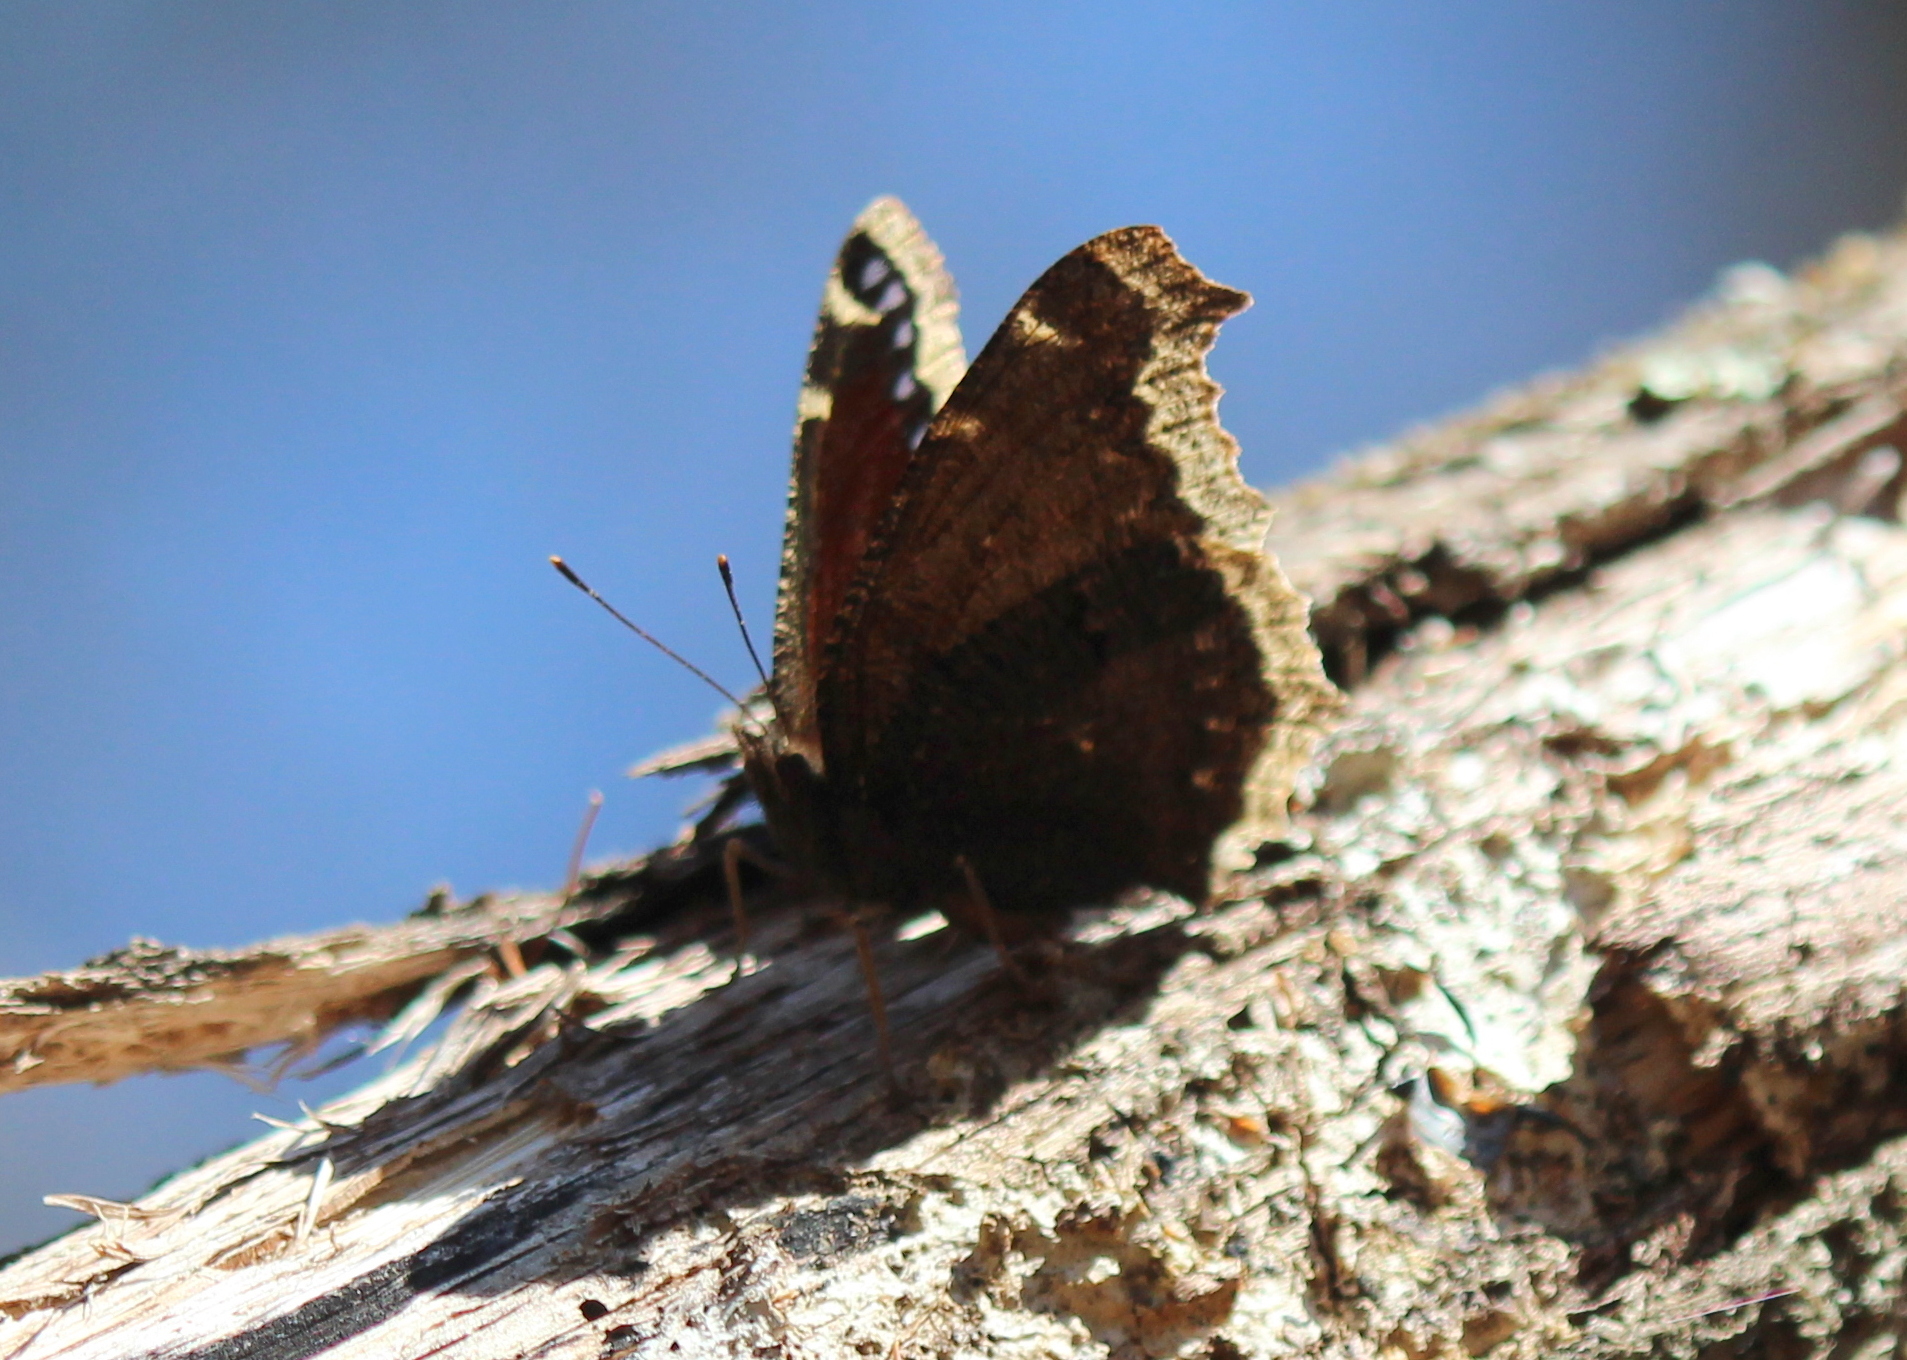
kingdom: Animalia
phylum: Arthropoda
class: Insecta
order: Lepidoptera
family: Nymphalidae
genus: Nymphalis
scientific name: Nymphalis antiopa
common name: Camberwell beauty
